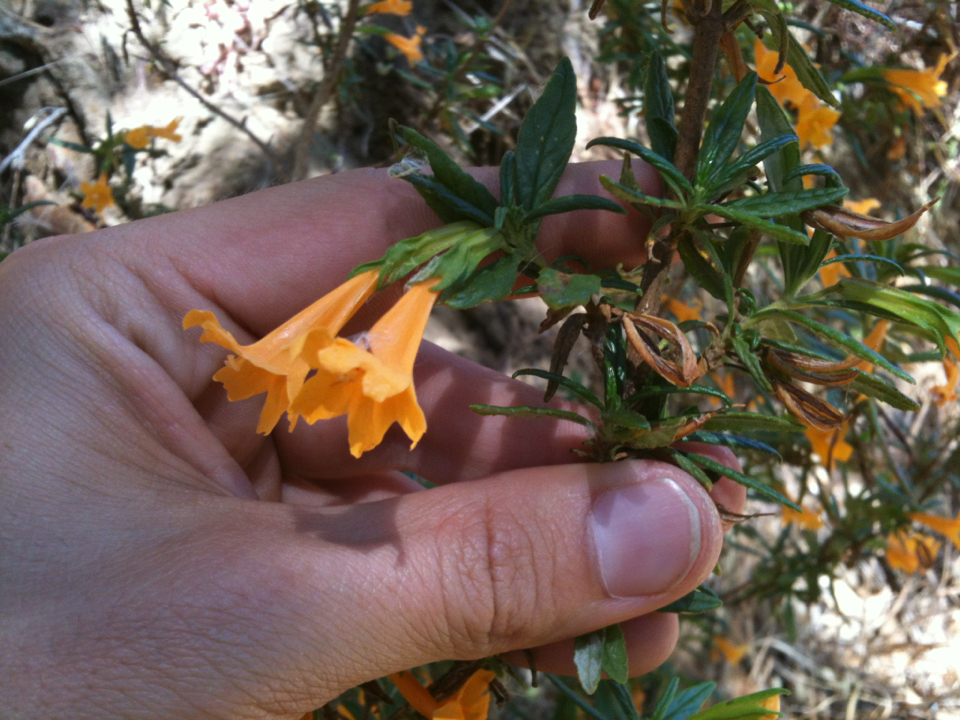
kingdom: Plantae
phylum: Tracheophyta
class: Magnoliopsida
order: Lamiales
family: Phrymaceae
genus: Diplacus
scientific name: Diplacus aurantiacus
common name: Bush monkey-flower
